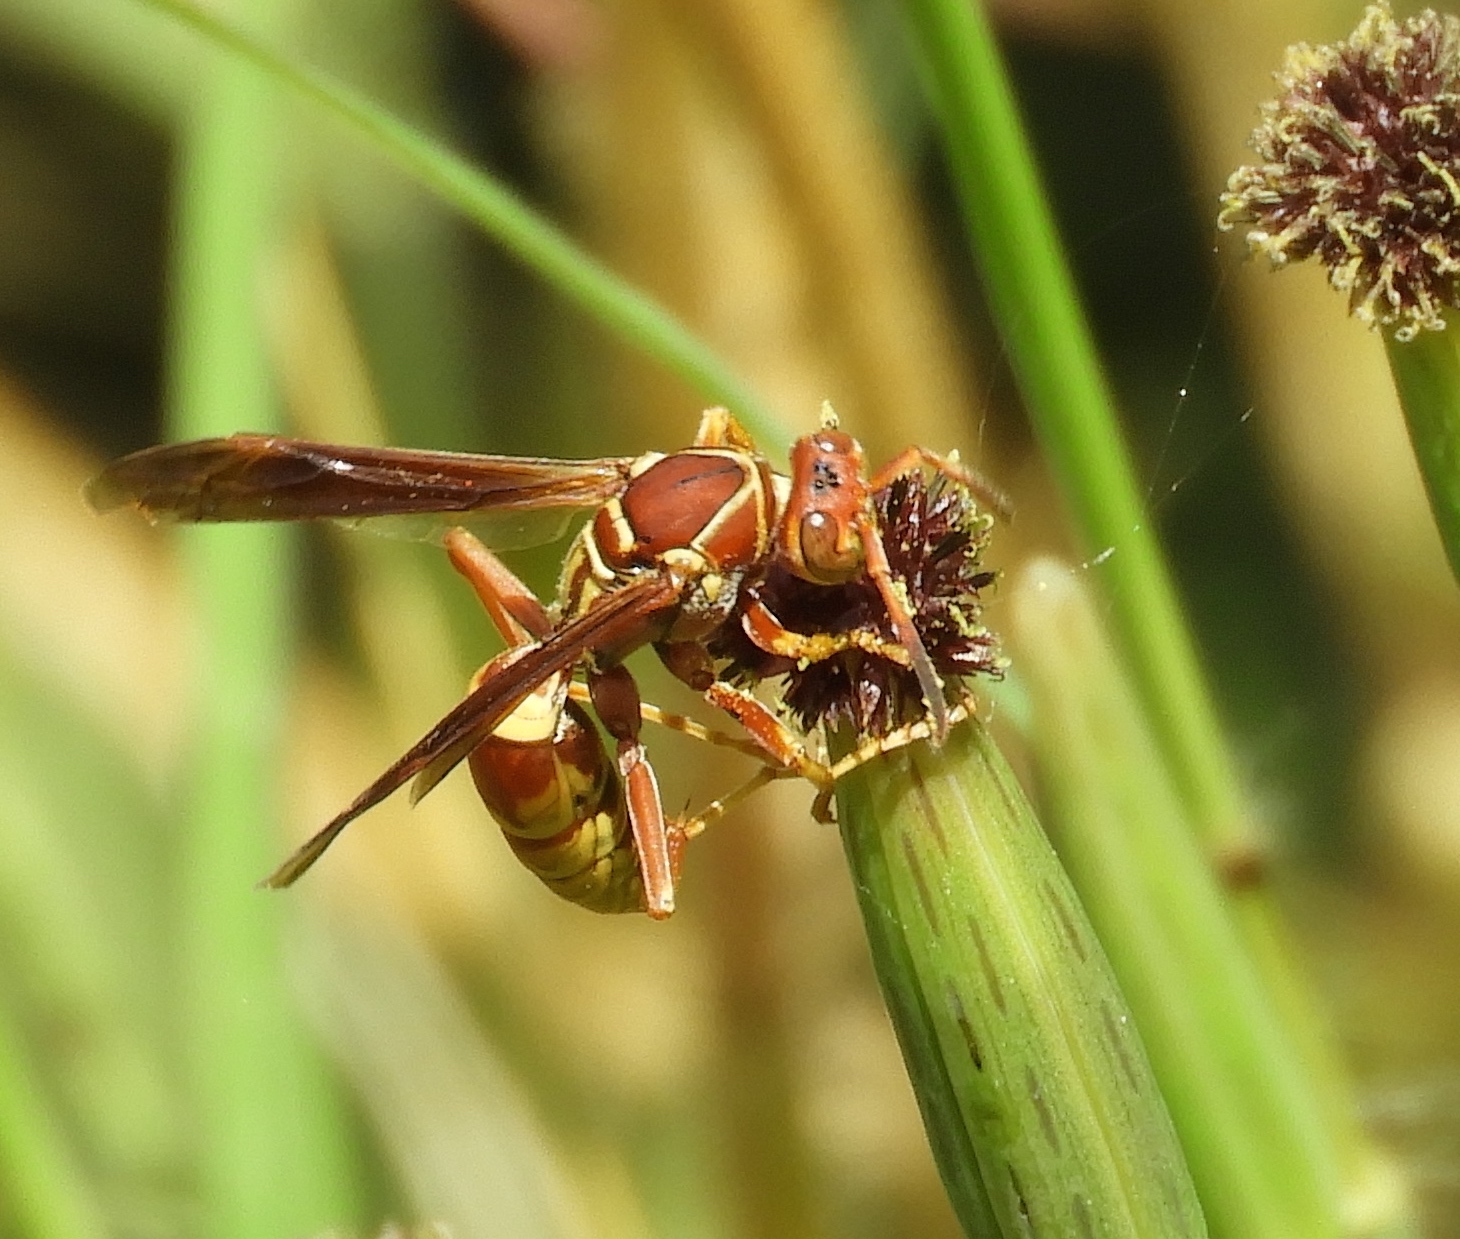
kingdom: Animalia
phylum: Arthropoda
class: Insecta
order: Hymenoptera
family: Eumenidae
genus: Polistes
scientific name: Polistes dorsalis
